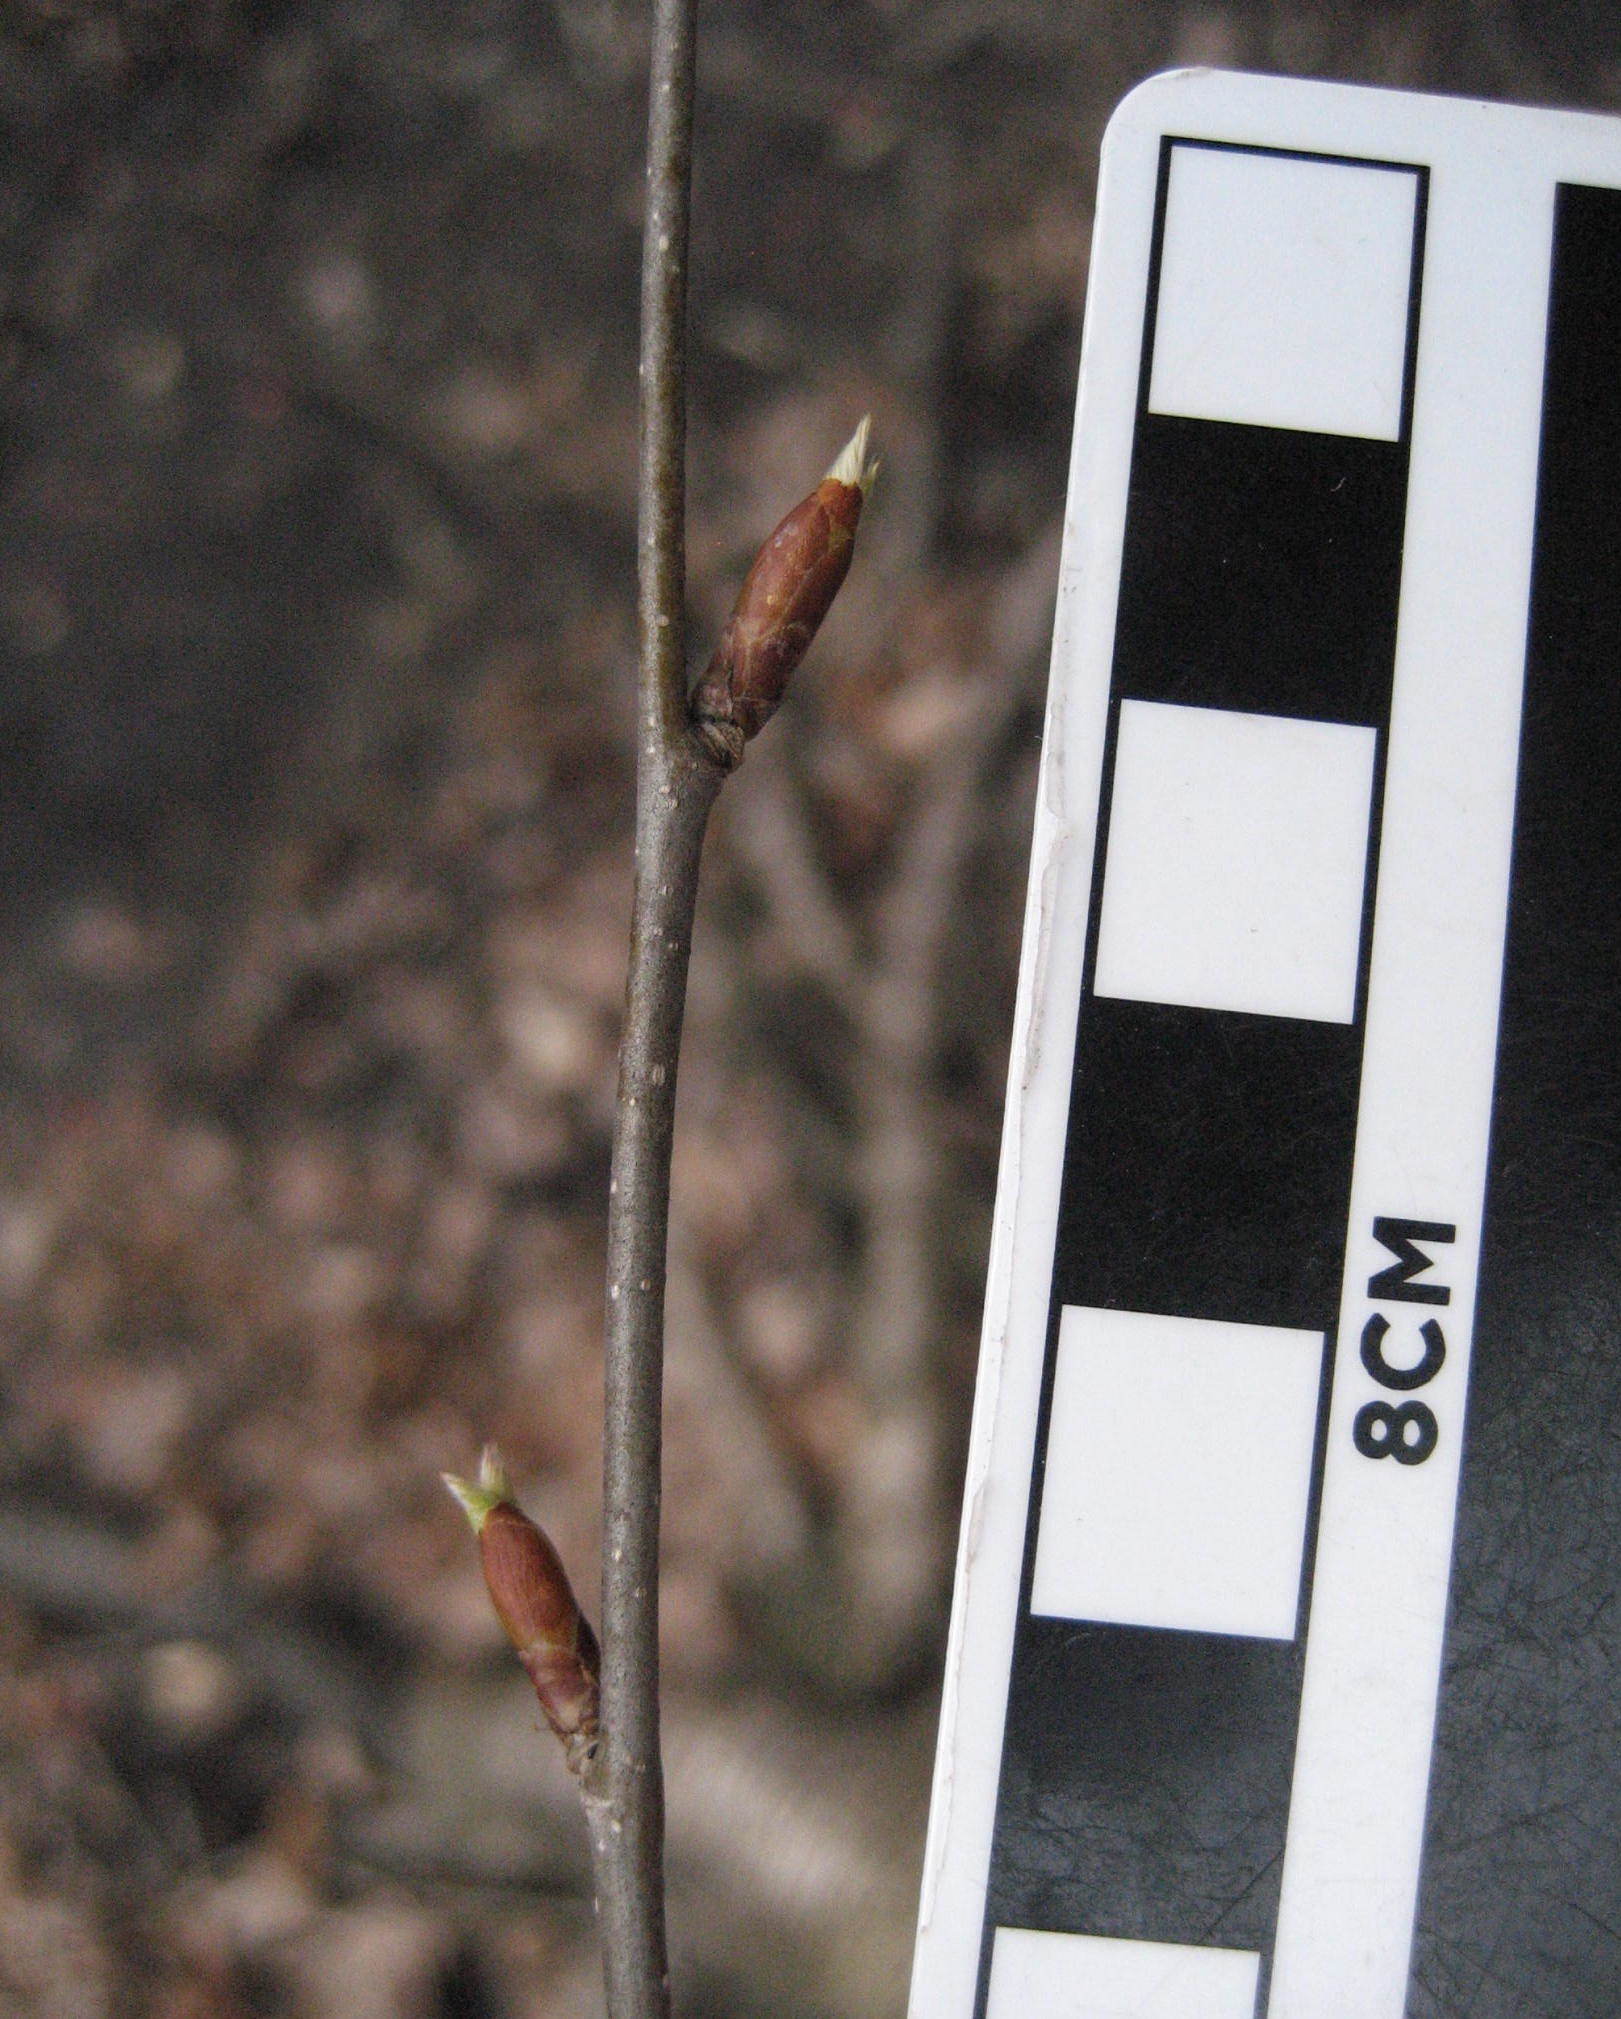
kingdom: Plantae
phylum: Tracheophyta
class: Magnoliopsida
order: Fagales
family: Betulaceae
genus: Betula
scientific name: Betula alleghaniensis
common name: Yellow birch
